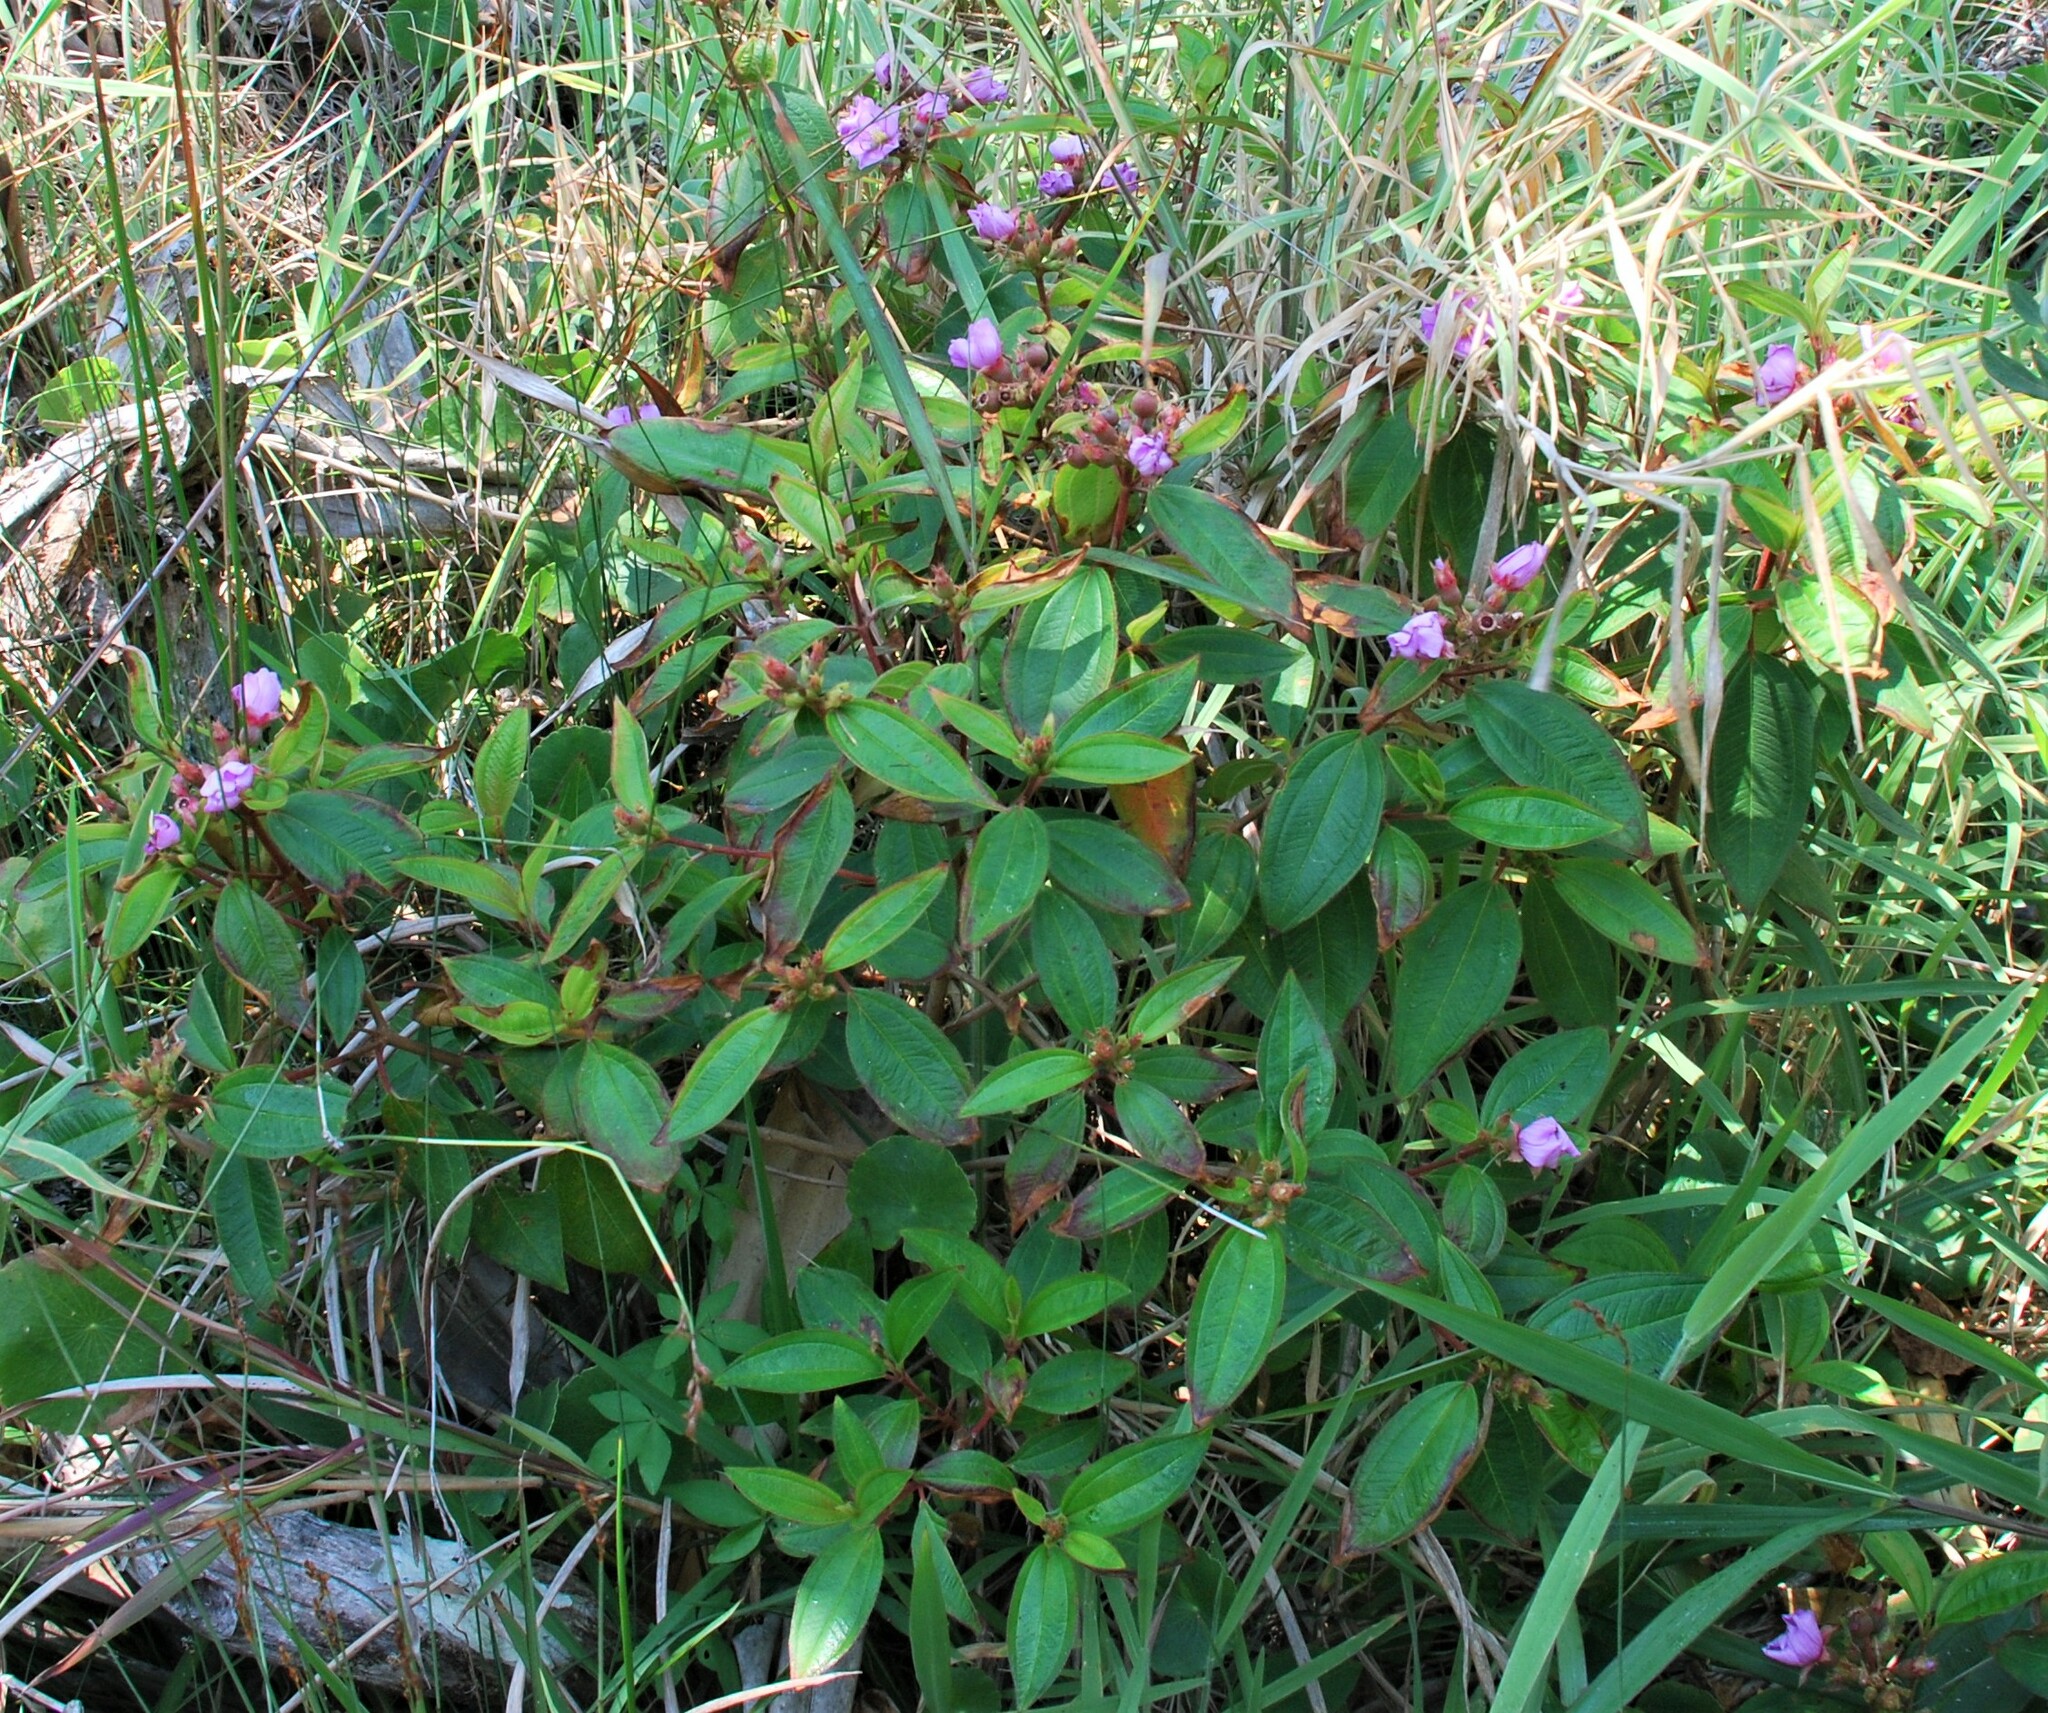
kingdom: Plantae
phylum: Tracheophyta
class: Magnoliopsida
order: Myrtales
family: Melastomataceae
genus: Melastoma
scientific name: Melastoma malabathricum
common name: Indian-rhododendron
